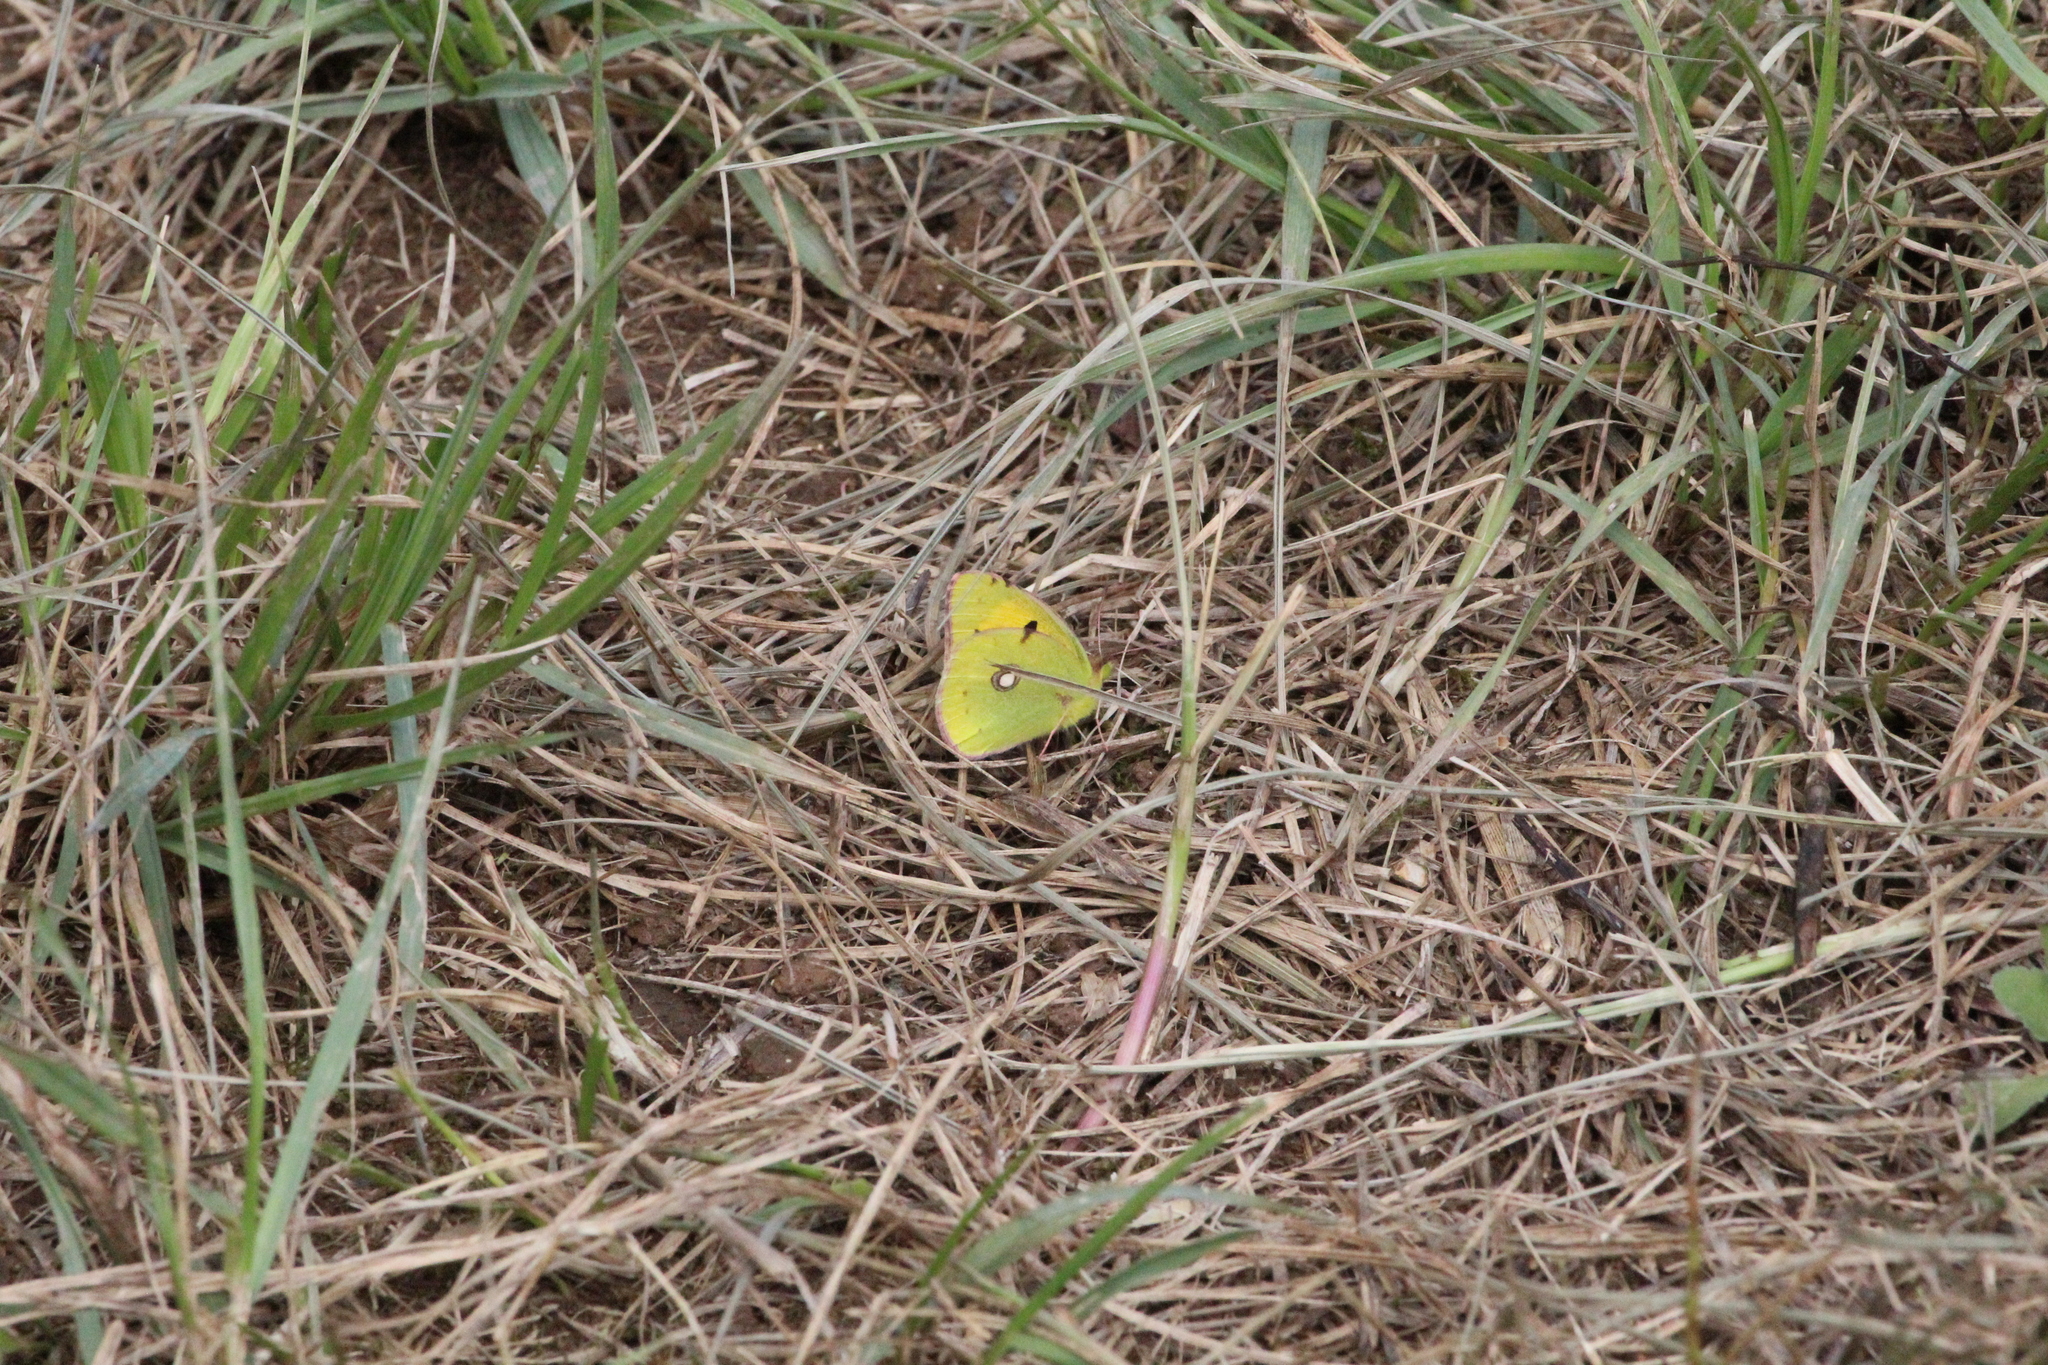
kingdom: Animalia
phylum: Arthropoda
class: Insecta
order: Lepidoptera
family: Pieridae
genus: Colias
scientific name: Colias croceus
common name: Clouded yellow
